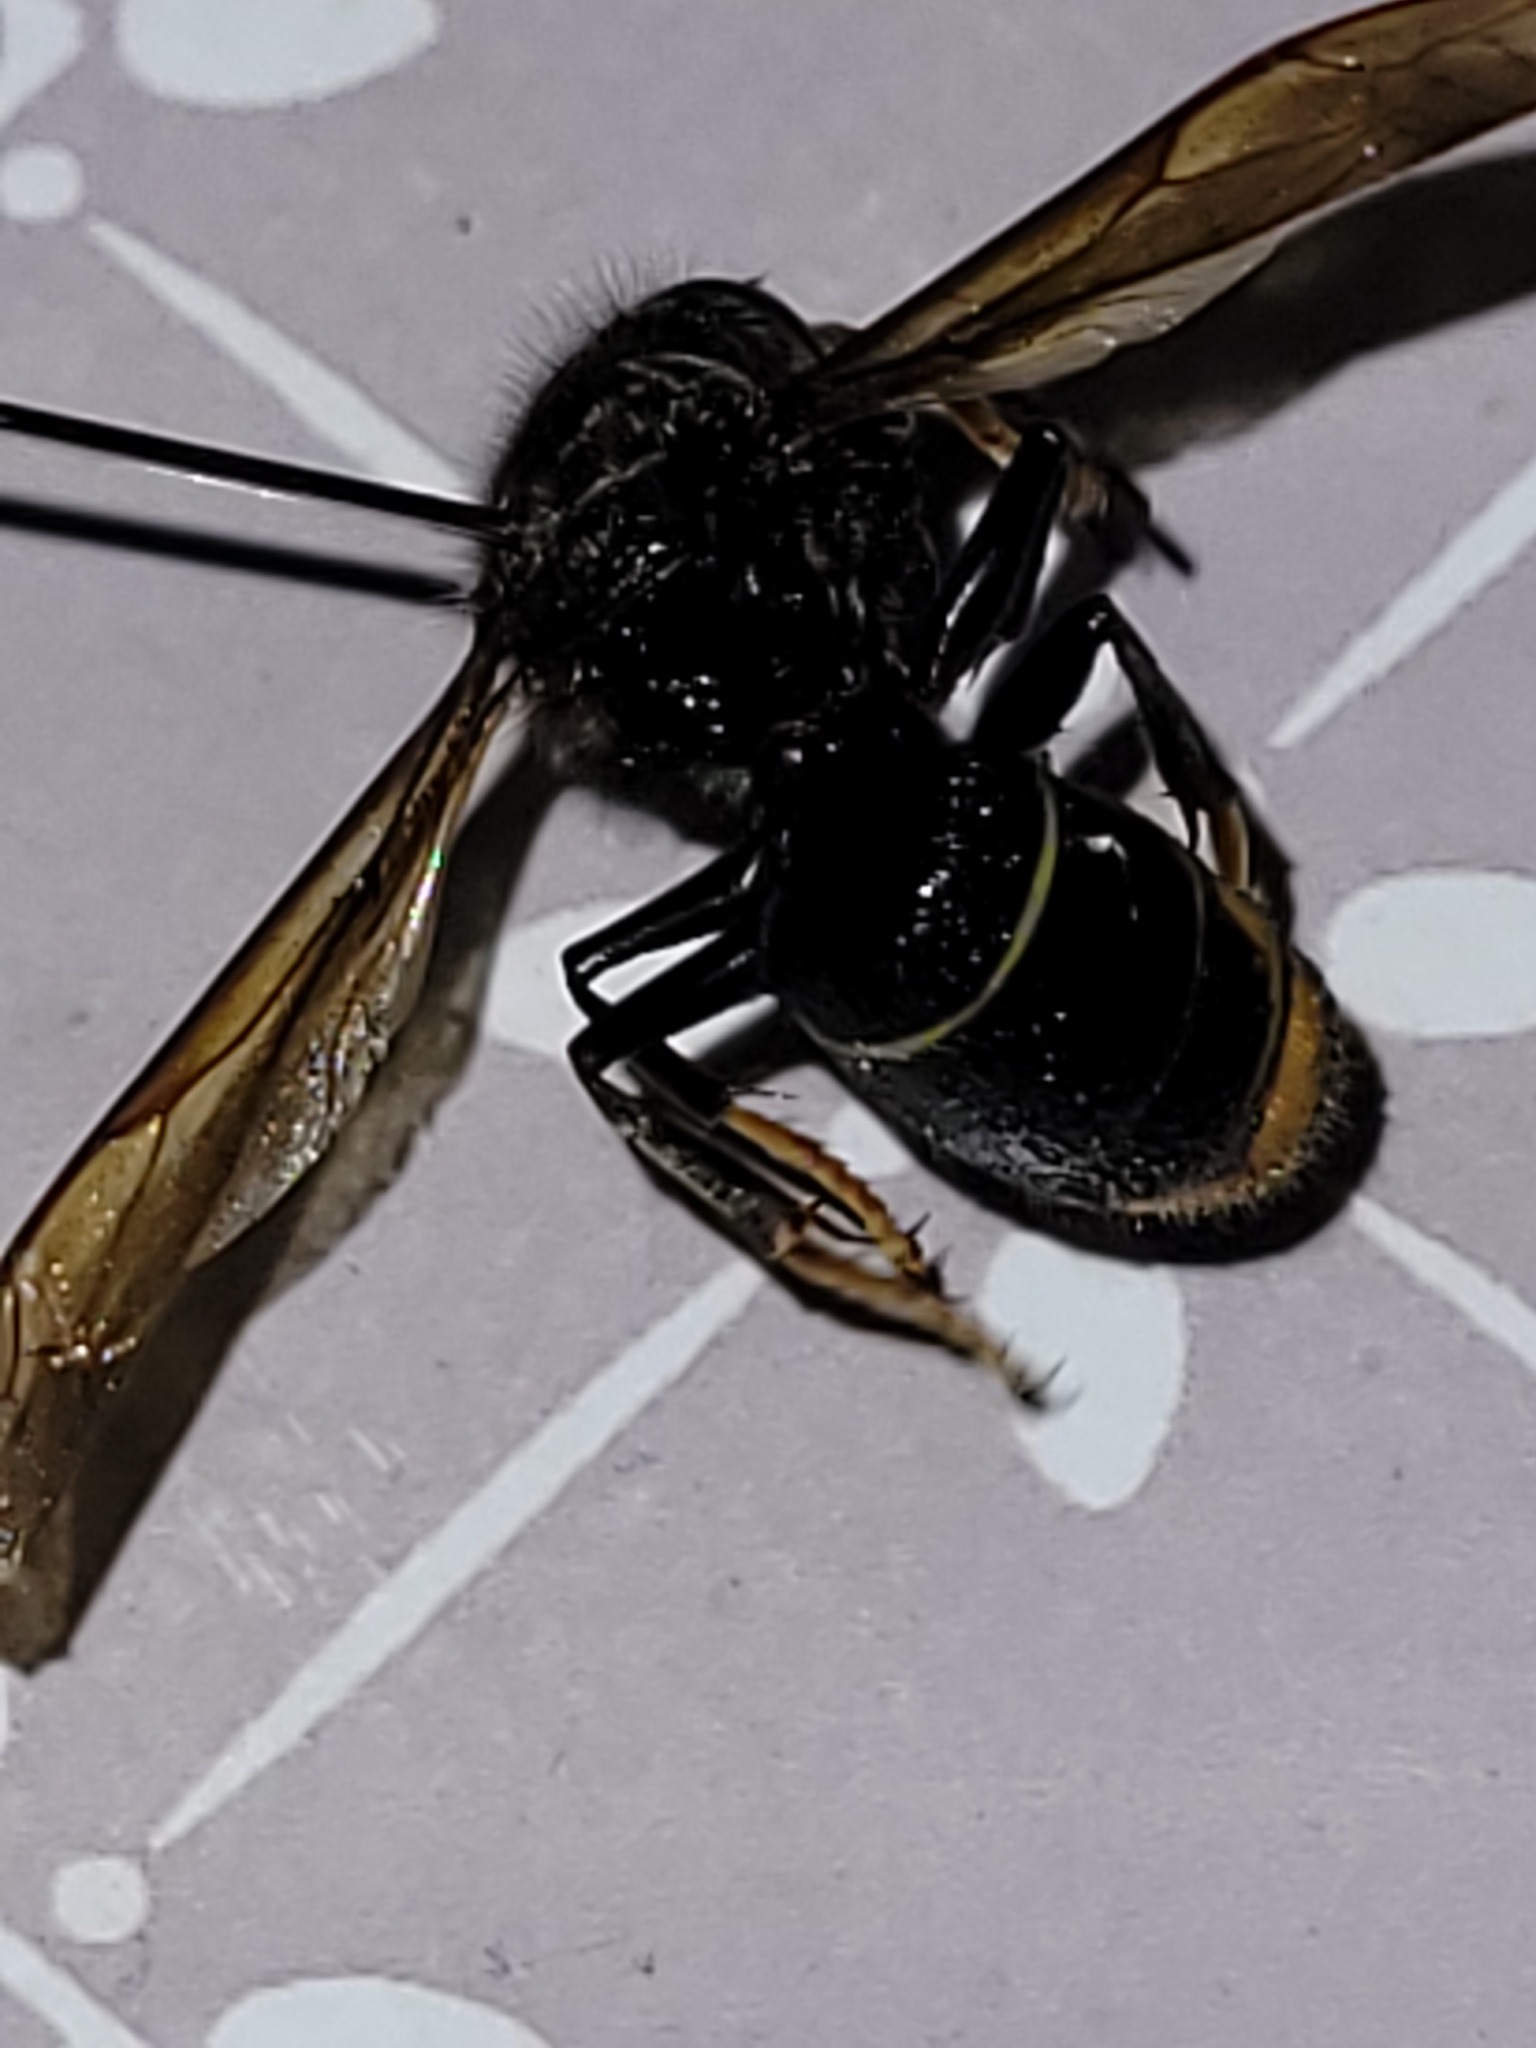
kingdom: Animalia
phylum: Arthropoda
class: Insecta
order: Hymenoptera
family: Vespidae
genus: Vespa
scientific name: Vespa velutina
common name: Asian hornet
